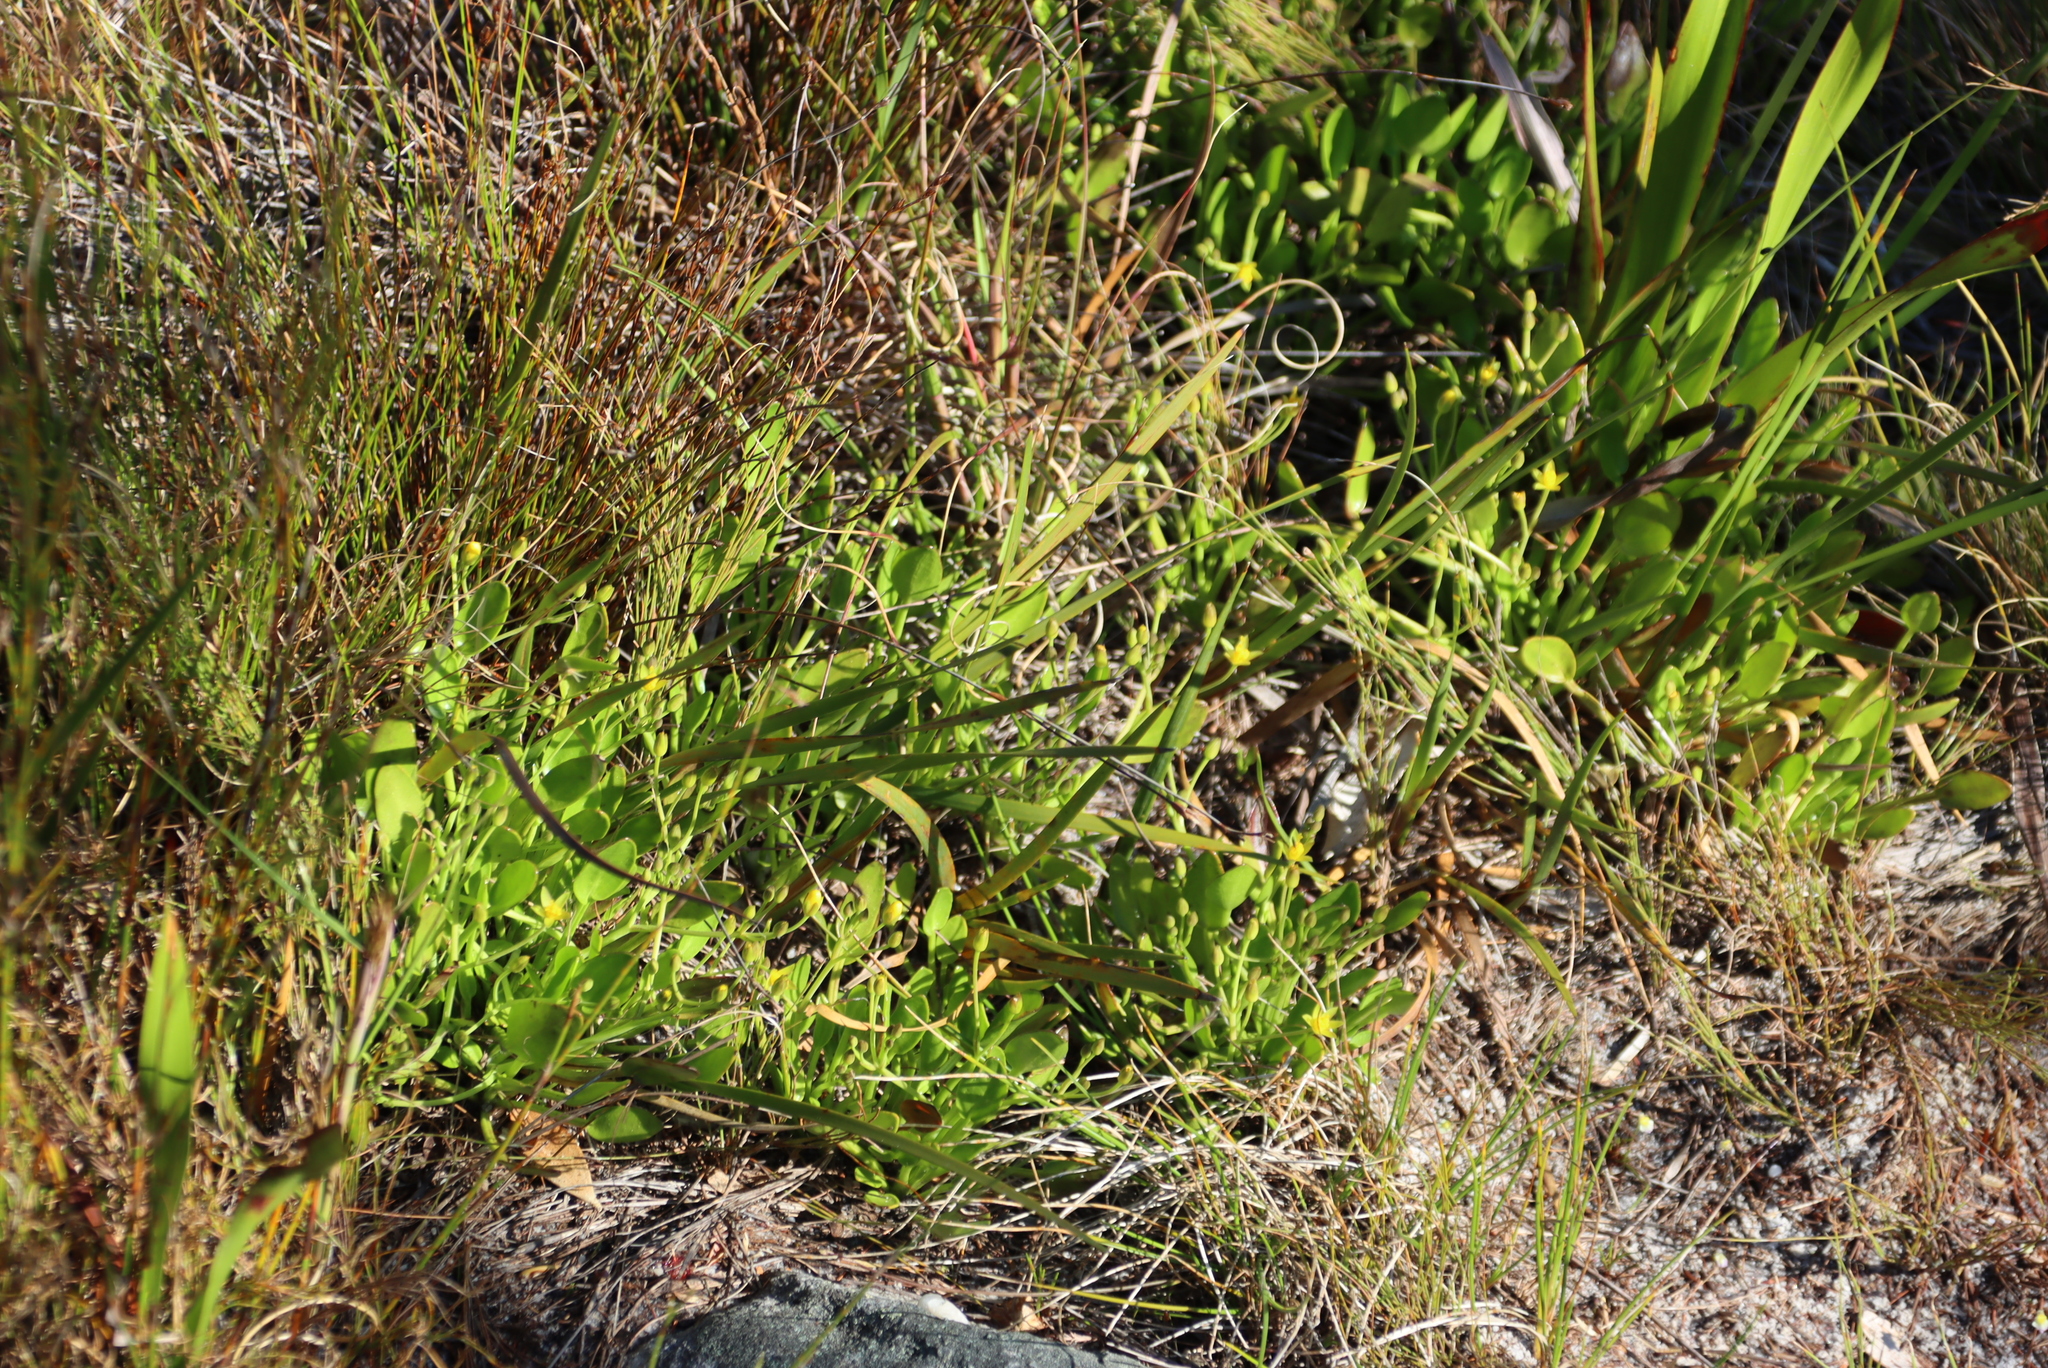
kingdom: Plantae
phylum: Tracheophyta
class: Magnoliopsida
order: Asterales
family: Menyanthaceae
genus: Villarsia
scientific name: Villarsia manningiana
